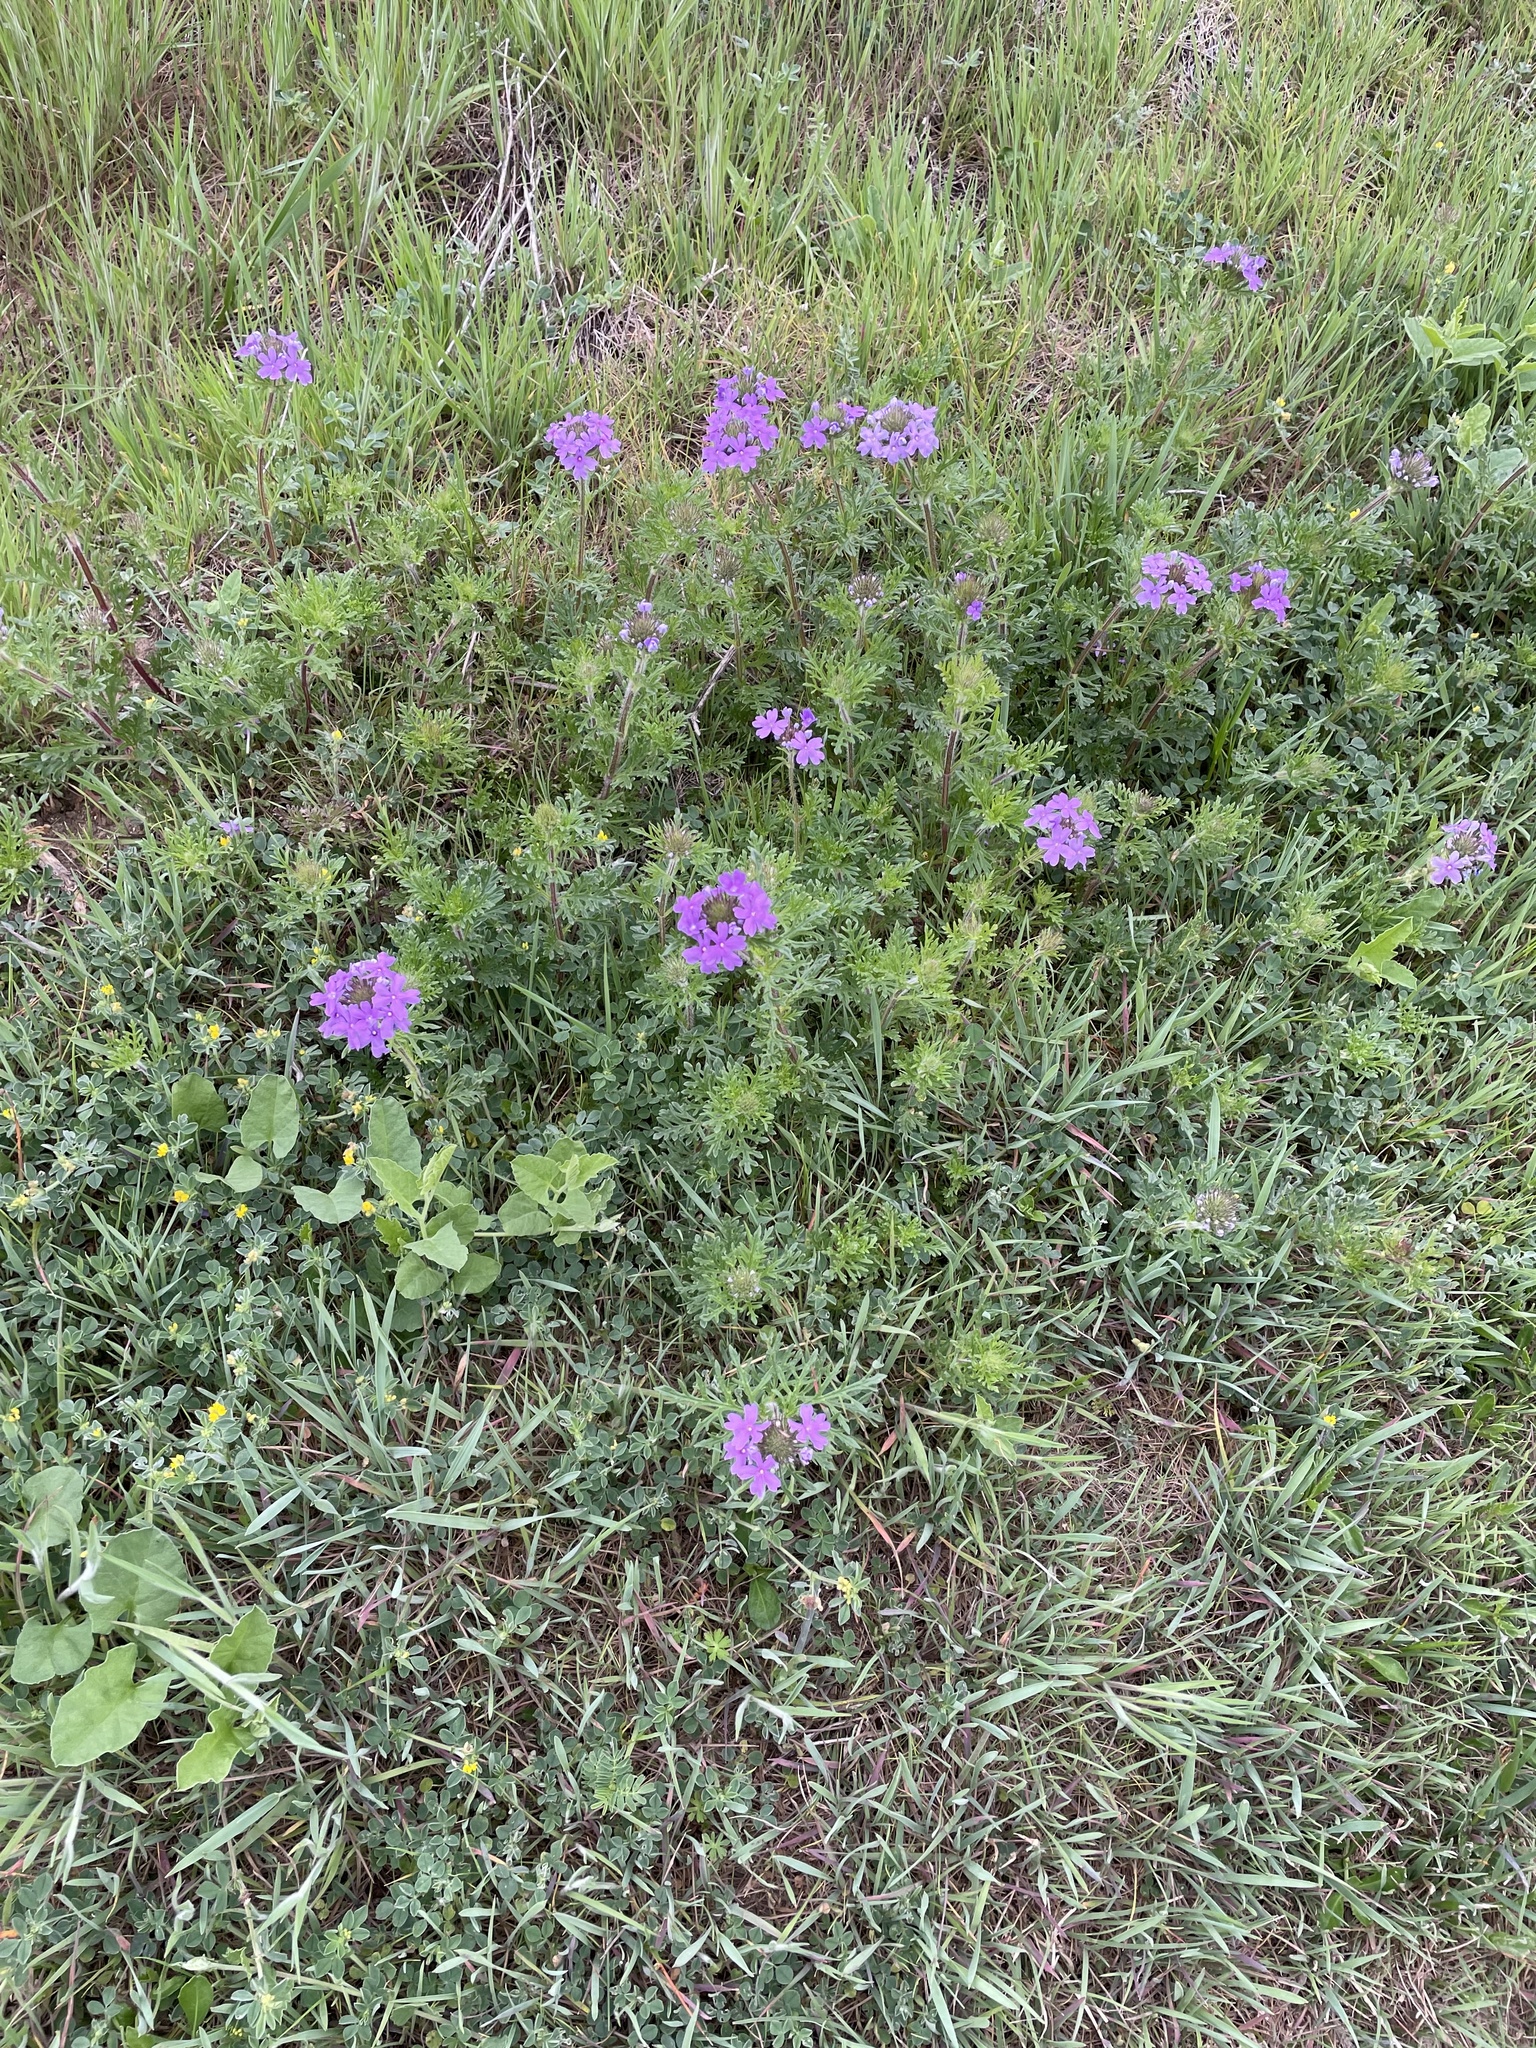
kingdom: Plantae
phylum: Tracheophyta
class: Magnoliopsida
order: Lamiales
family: Verbenaceae
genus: Verbena
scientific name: Verbena bipinnatifida
